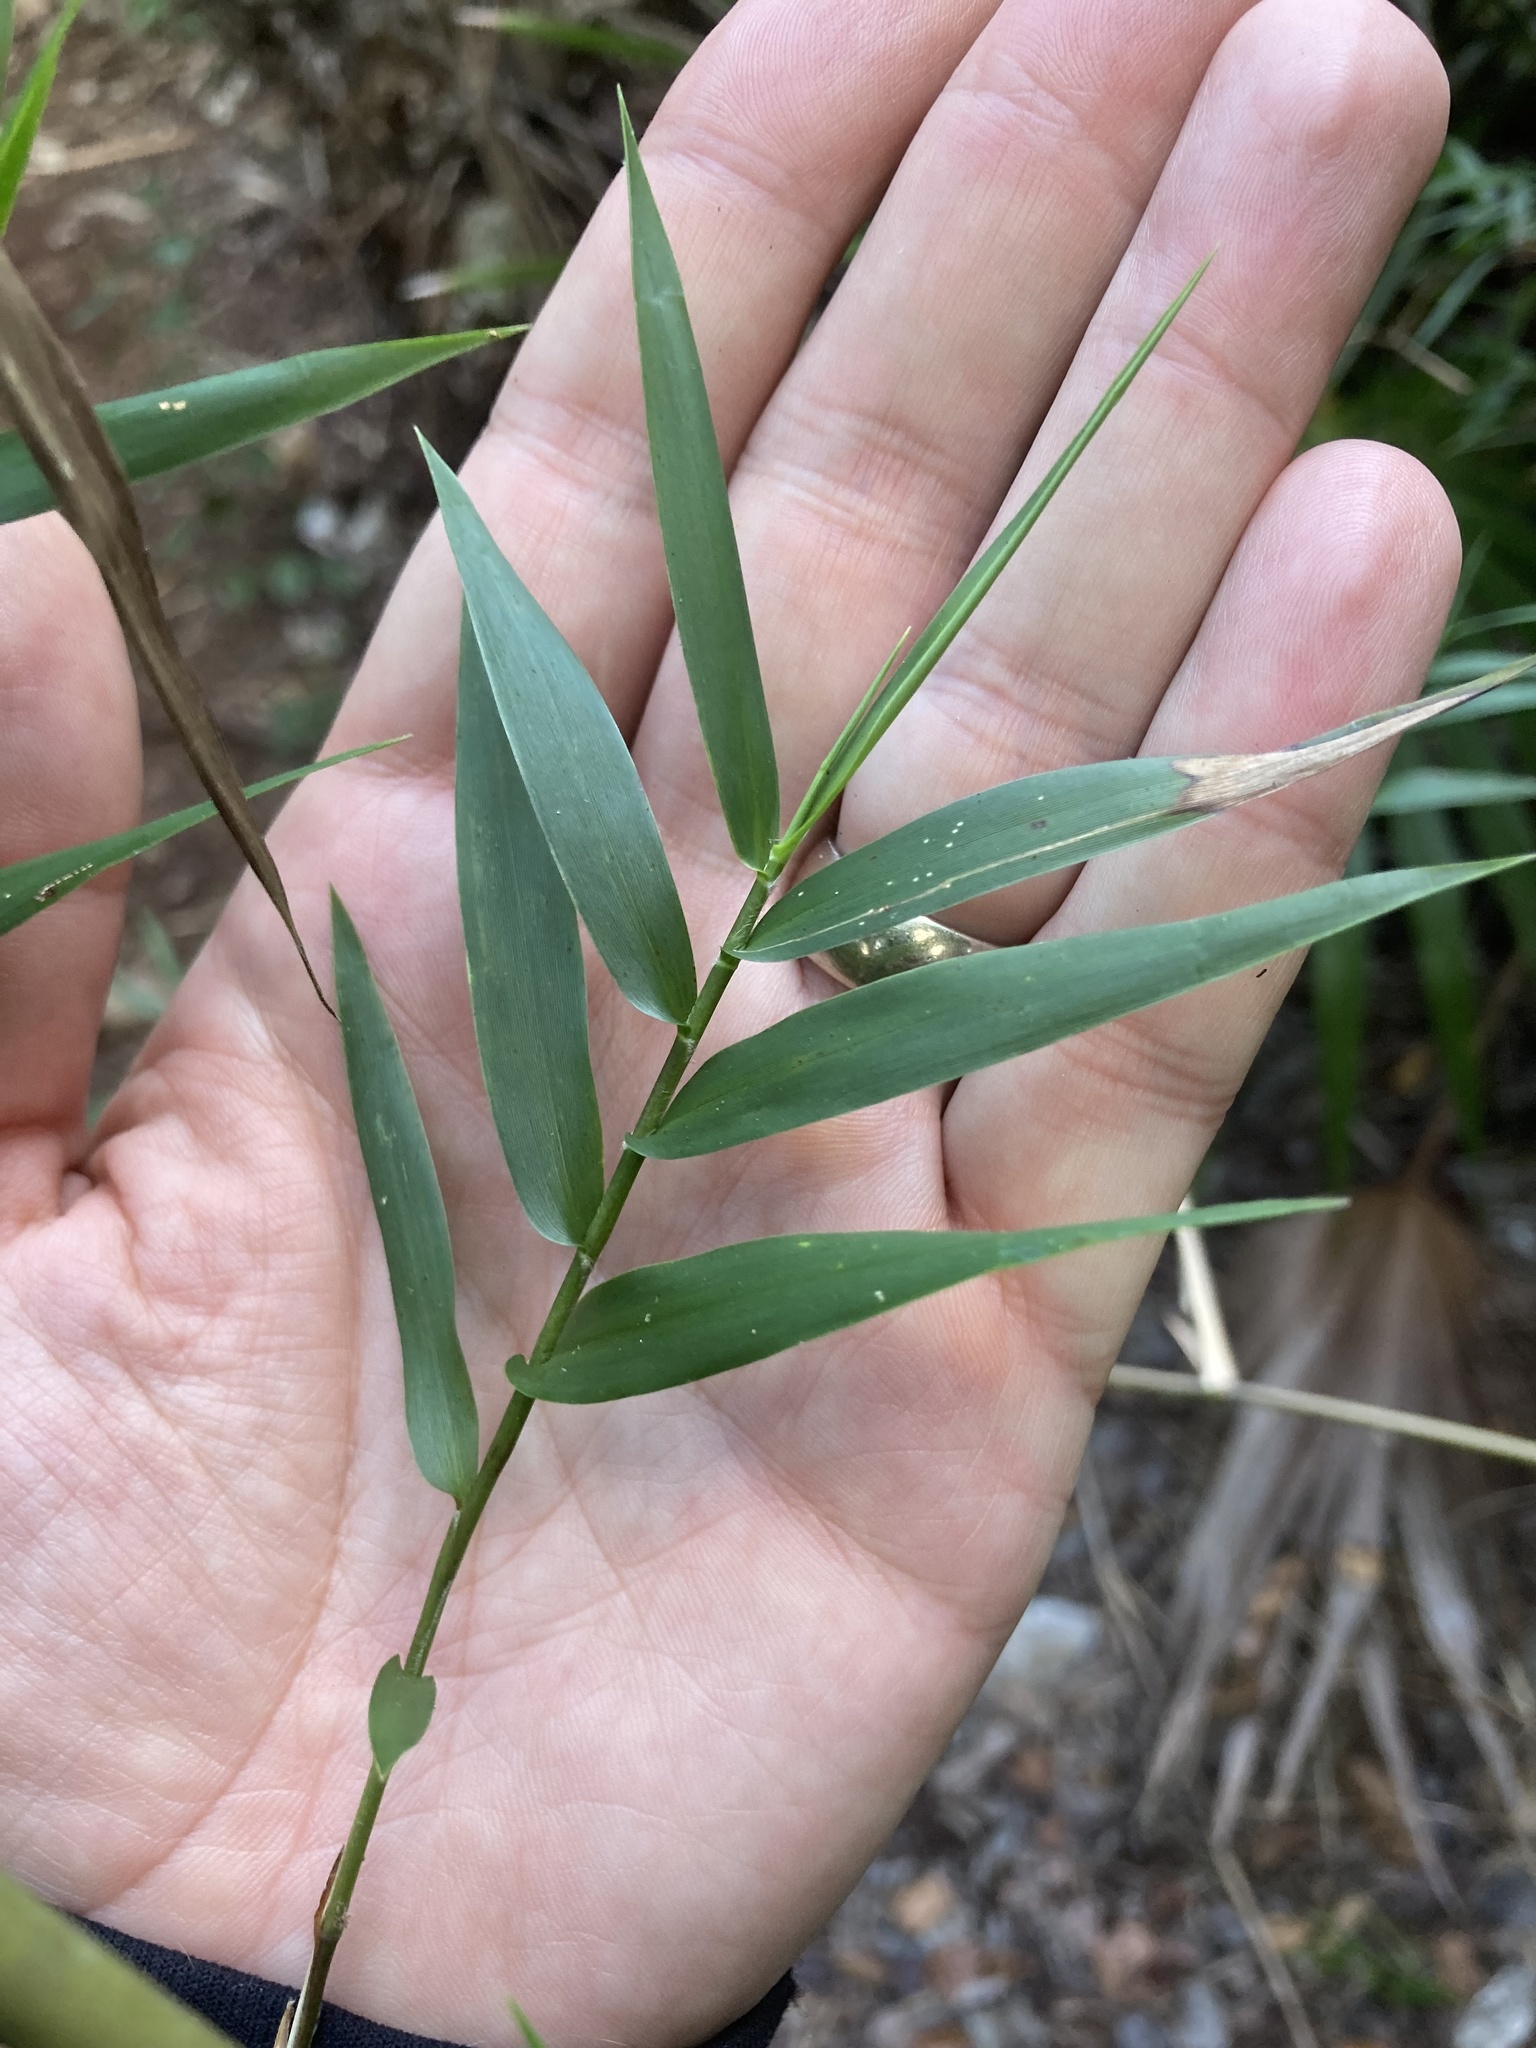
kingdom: Plantae
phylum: Tracheophyta
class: Liliopsida
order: Poales
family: Poaceae
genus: Lasiacis
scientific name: Lasiacis divaricata
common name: Smallcane
